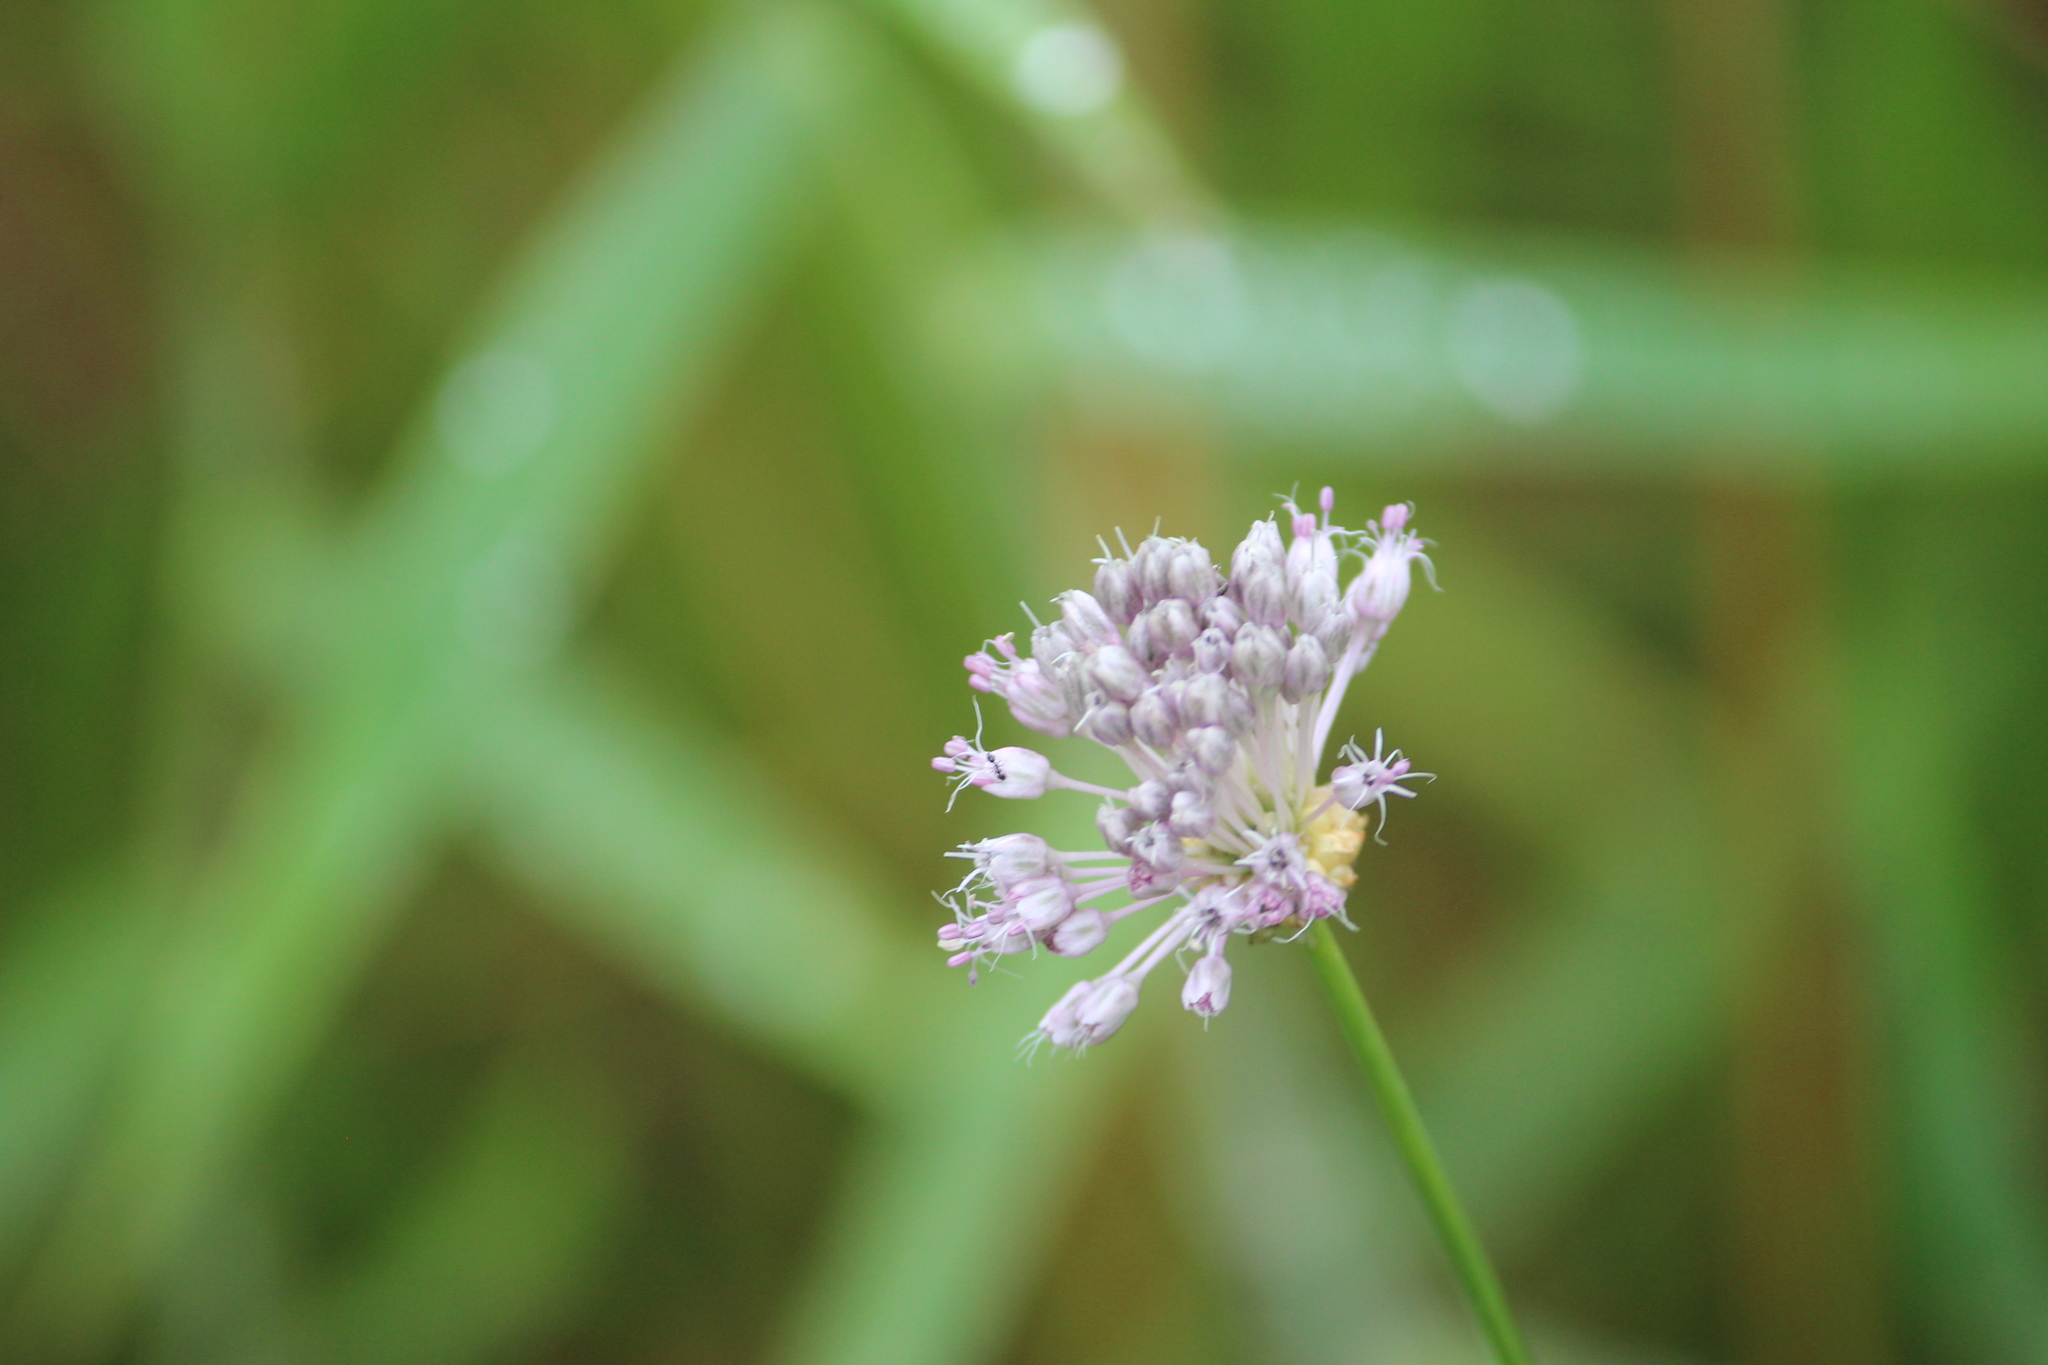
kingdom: Plantae
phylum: Tracheophyta
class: Liliopsida
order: Asparagales
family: Amaryllidaceae
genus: Allium
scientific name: Allium vineale
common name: Crow garlic
